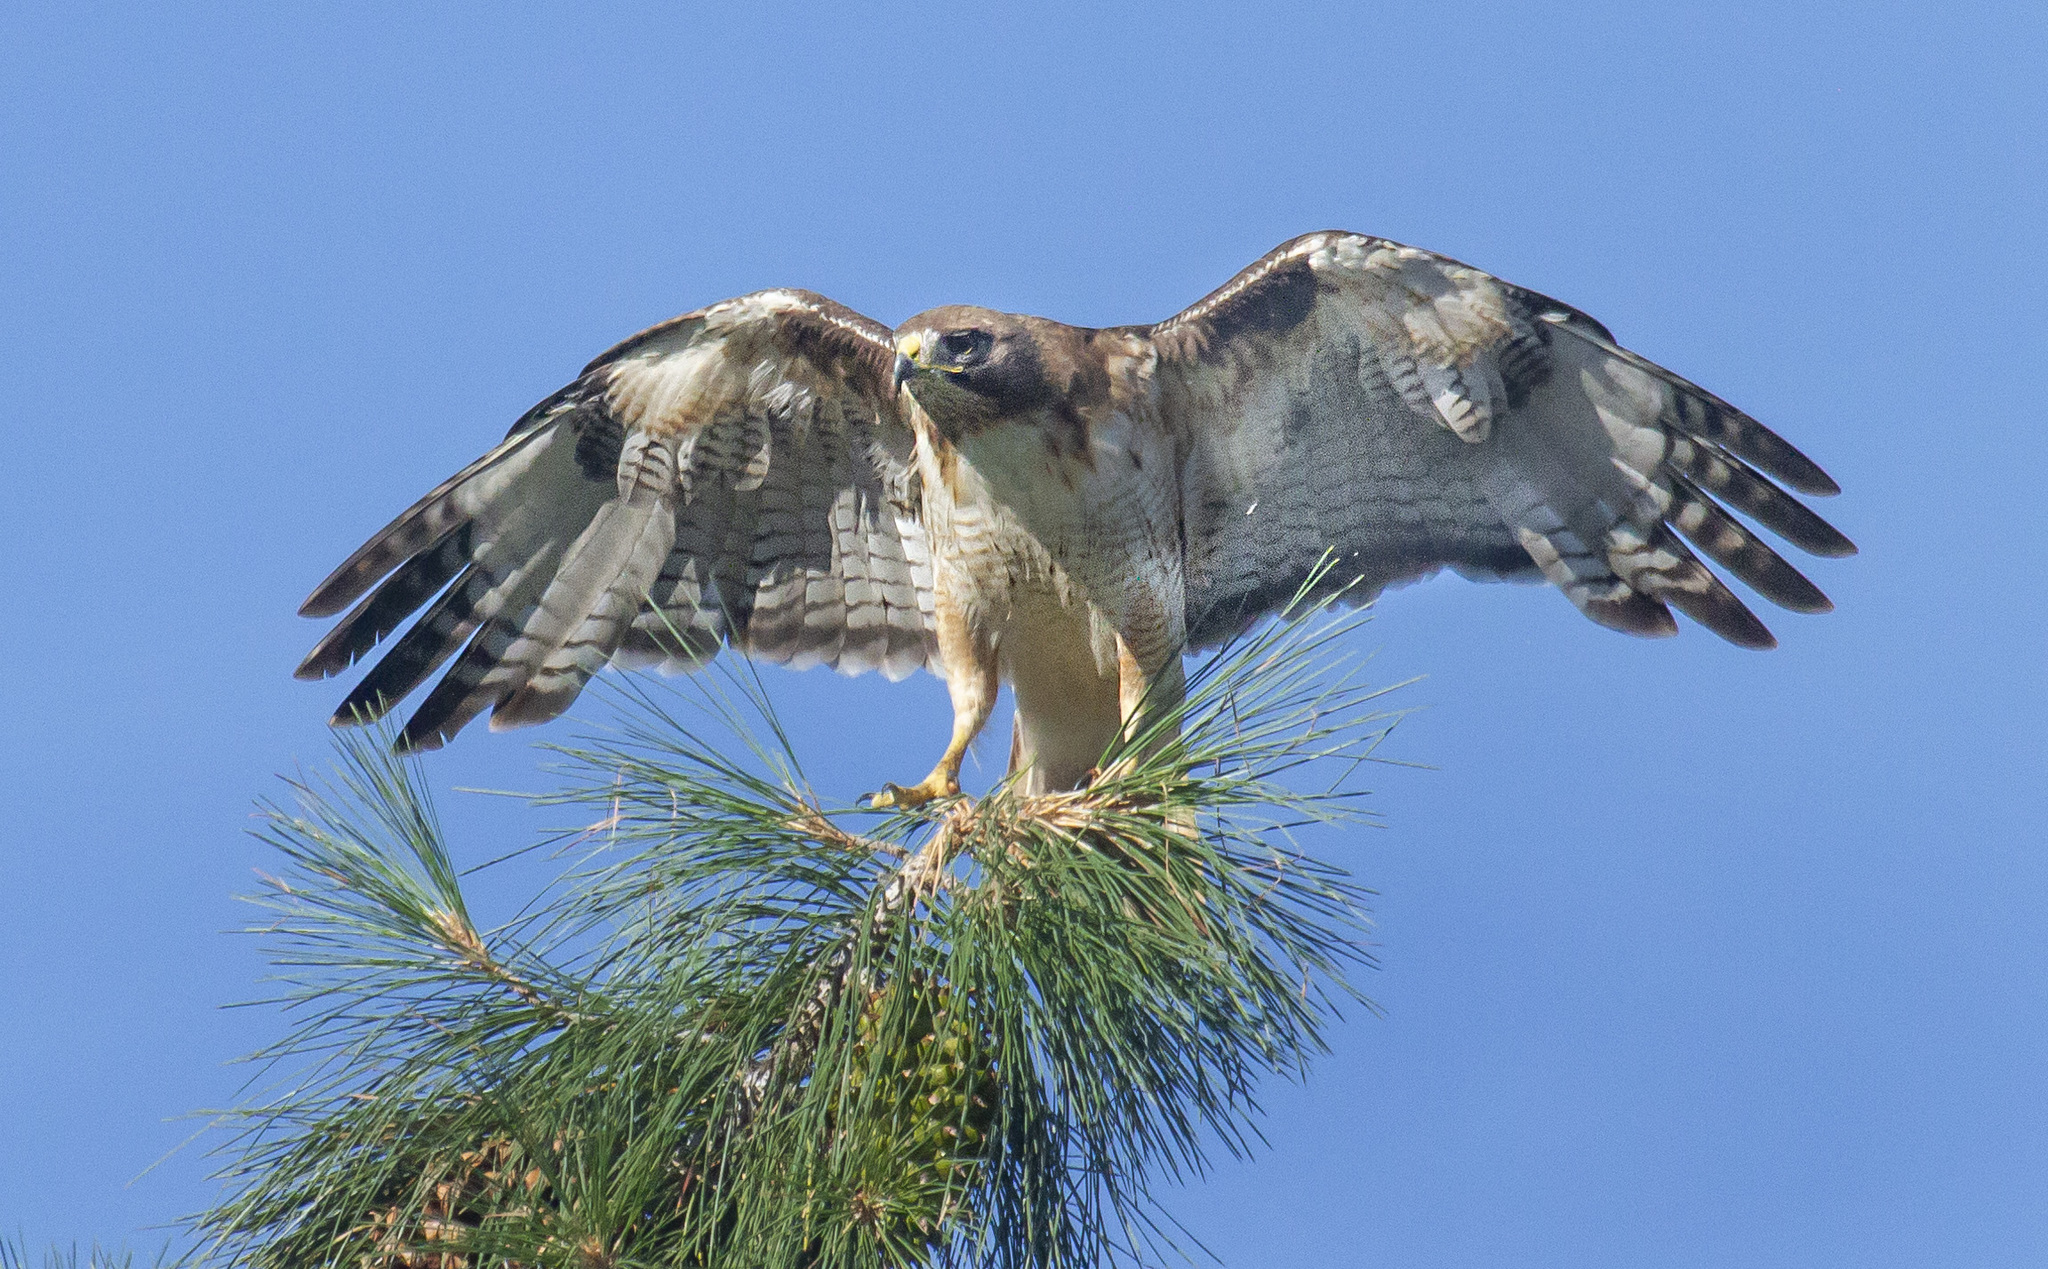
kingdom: Animalia
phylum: Chordata
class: Aves
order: Accipitriformes
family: Accipitridae
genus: Buteo
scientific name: Buteo jamaicensis
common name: Red-tailed hawk
